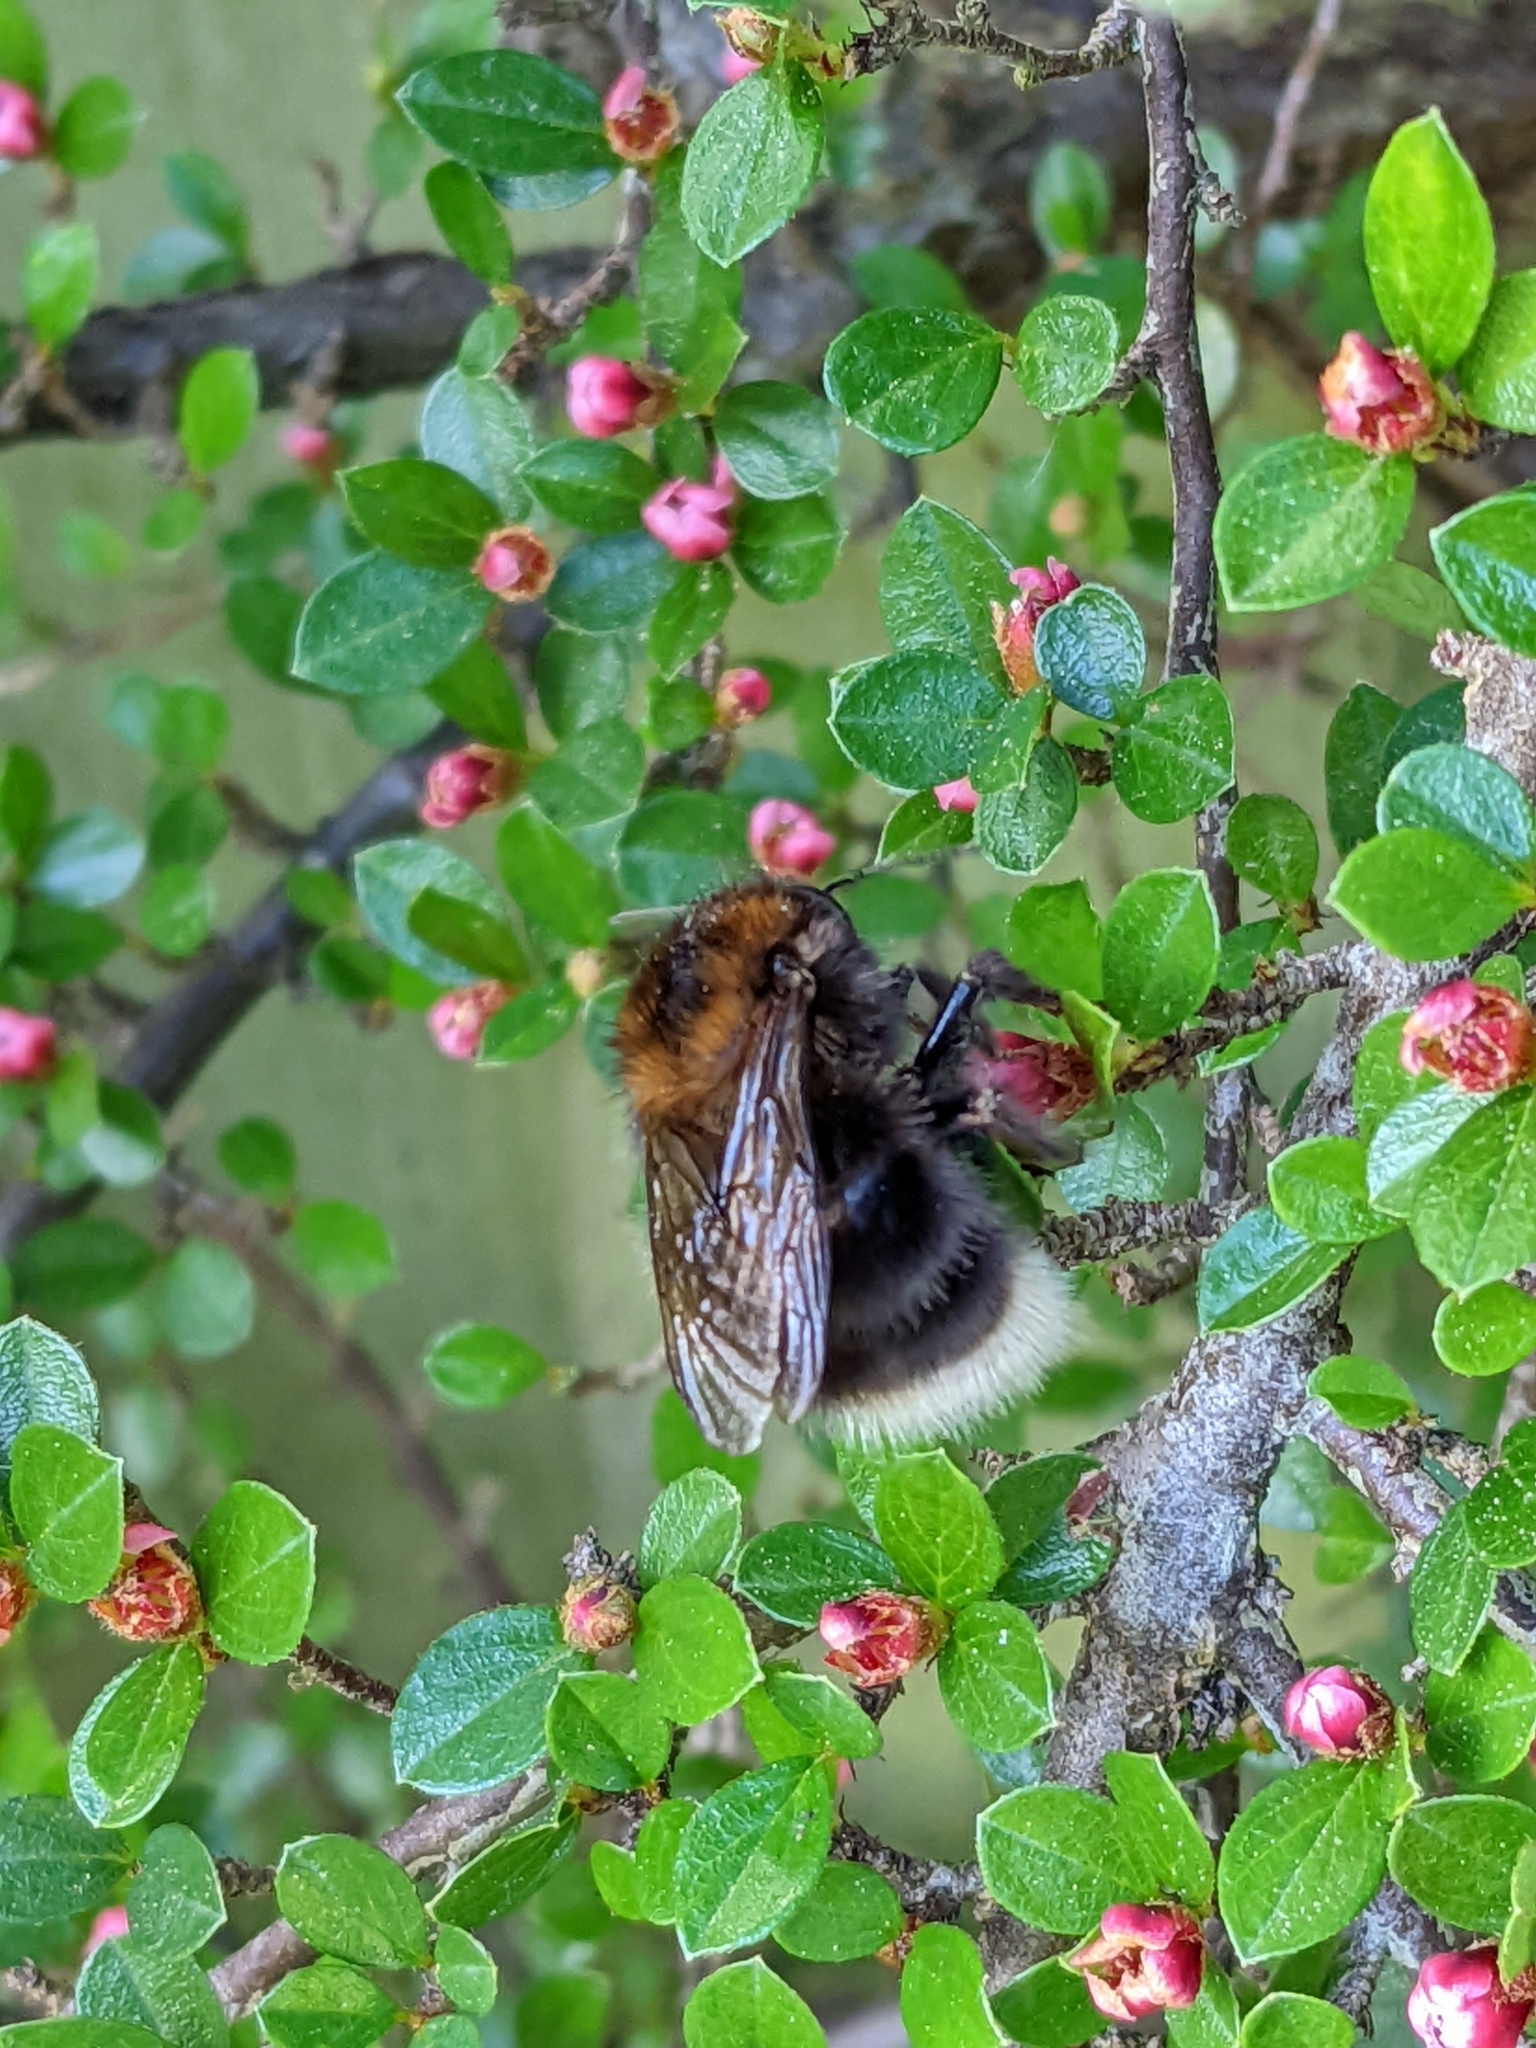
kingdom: Animalia
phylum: Arthropoda
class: Insecta
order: Hymenoptera
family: Apidae
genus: Bombus
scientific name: Bombus hypnorum
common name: New garden bumblebee
